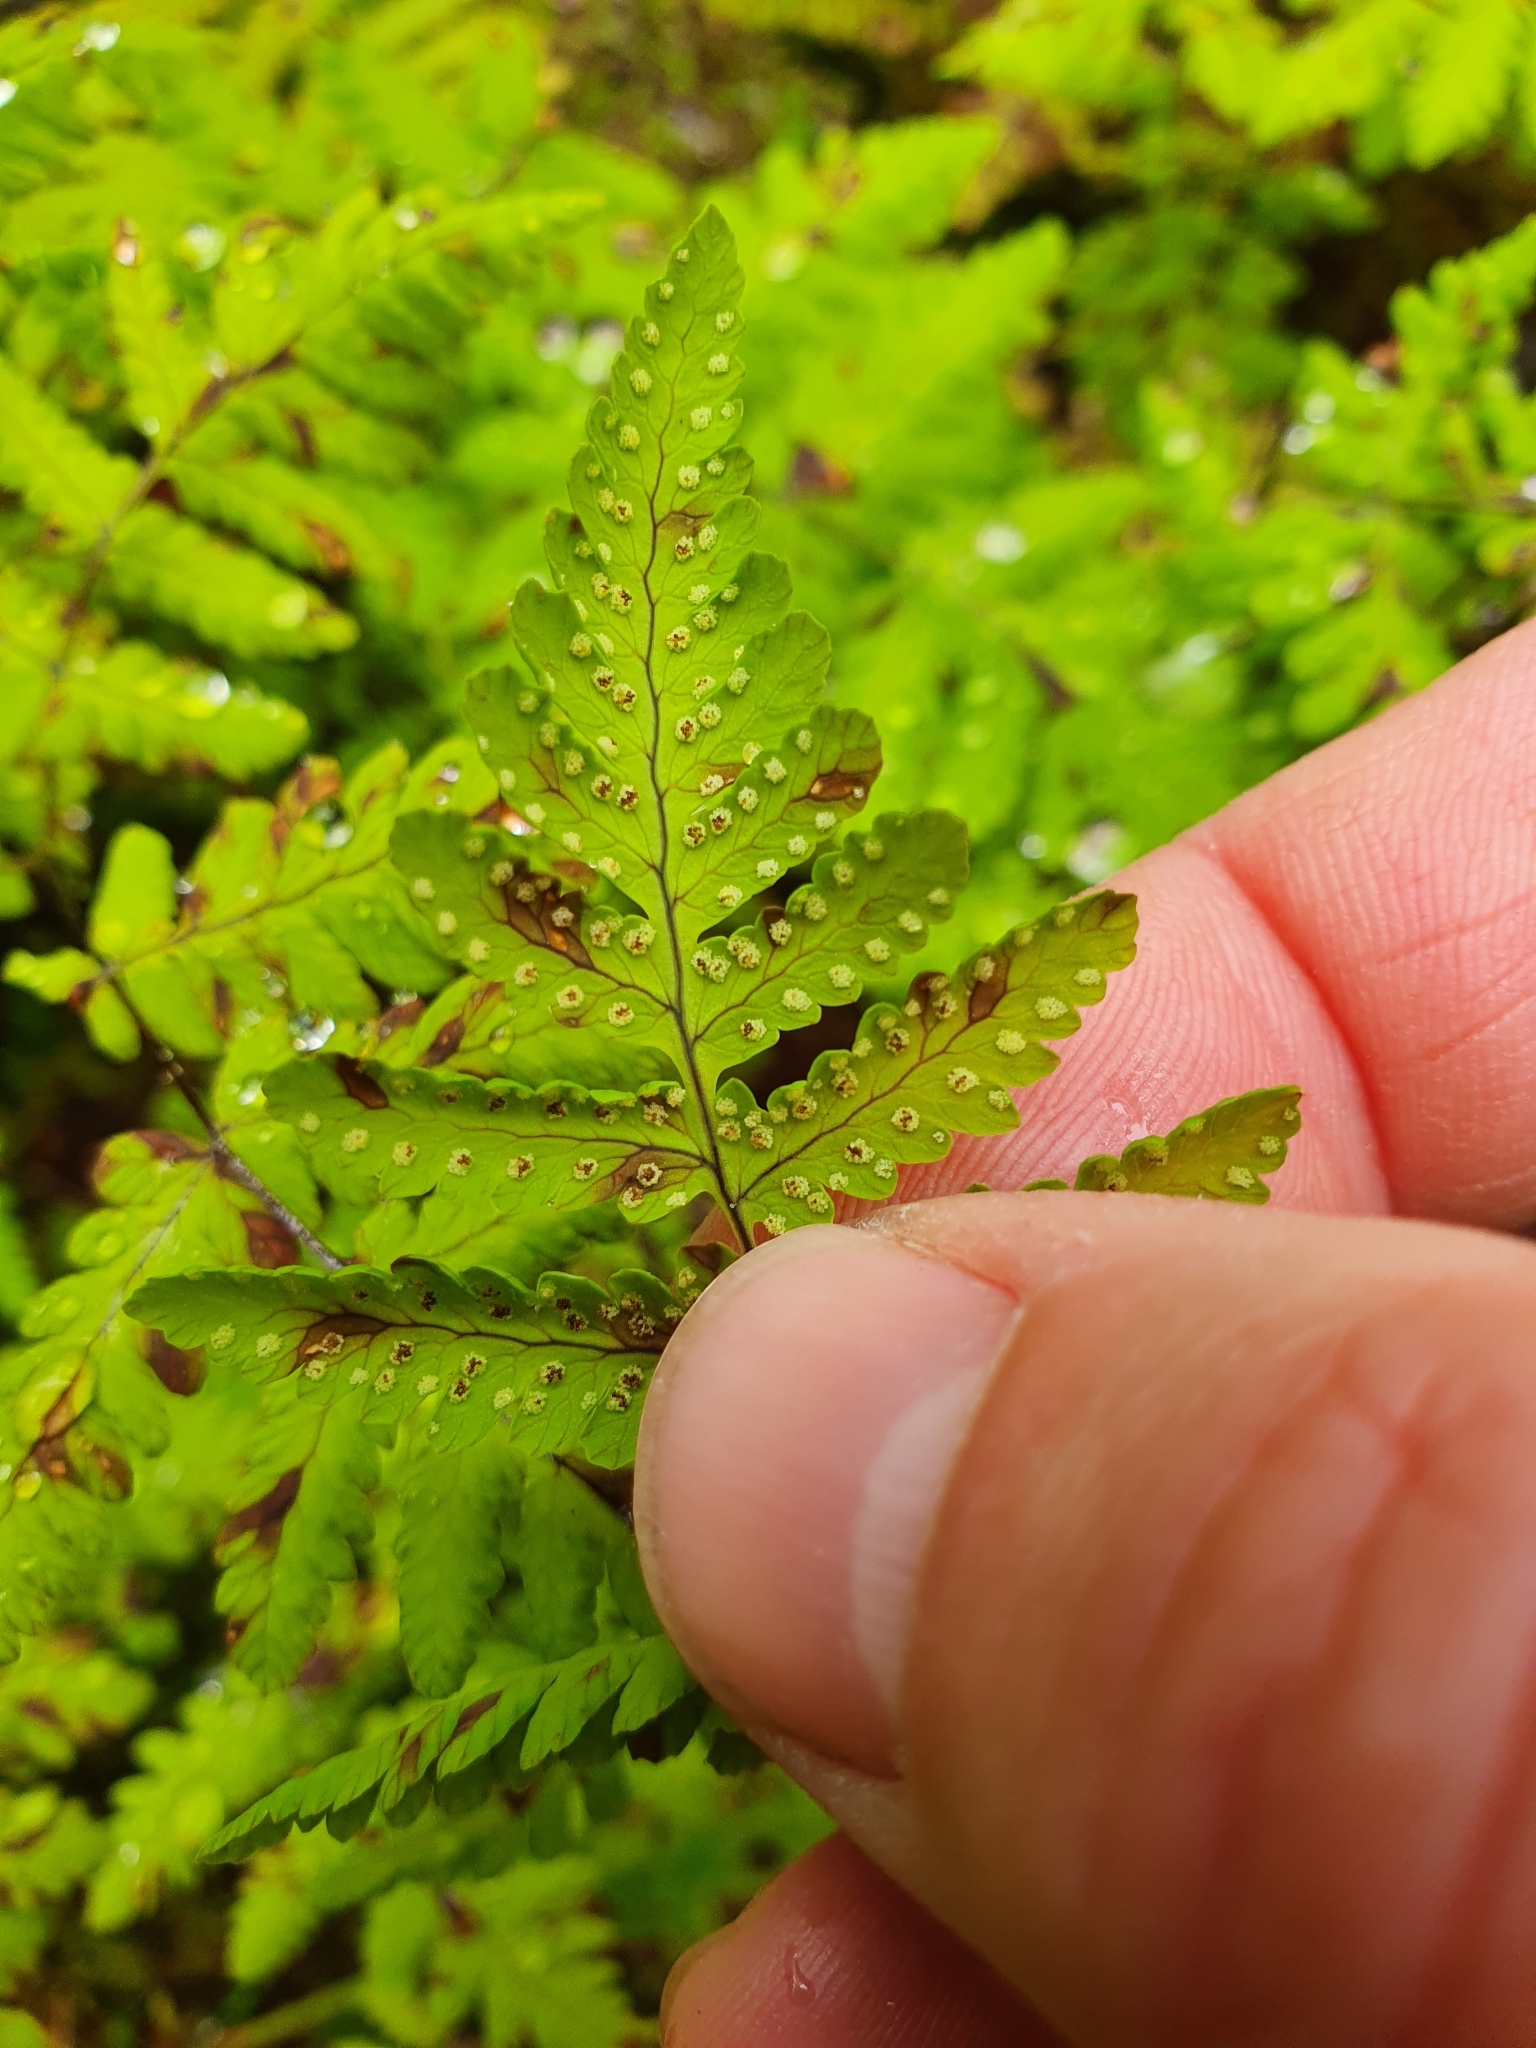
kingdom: Plantae
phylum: Tracheophyta
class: Polypodiopsida
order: Polypodiales
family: Cystopteridaceae
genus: Gymnocarpium
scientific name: Gymnocarpium dryopteris
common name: Oak fern
